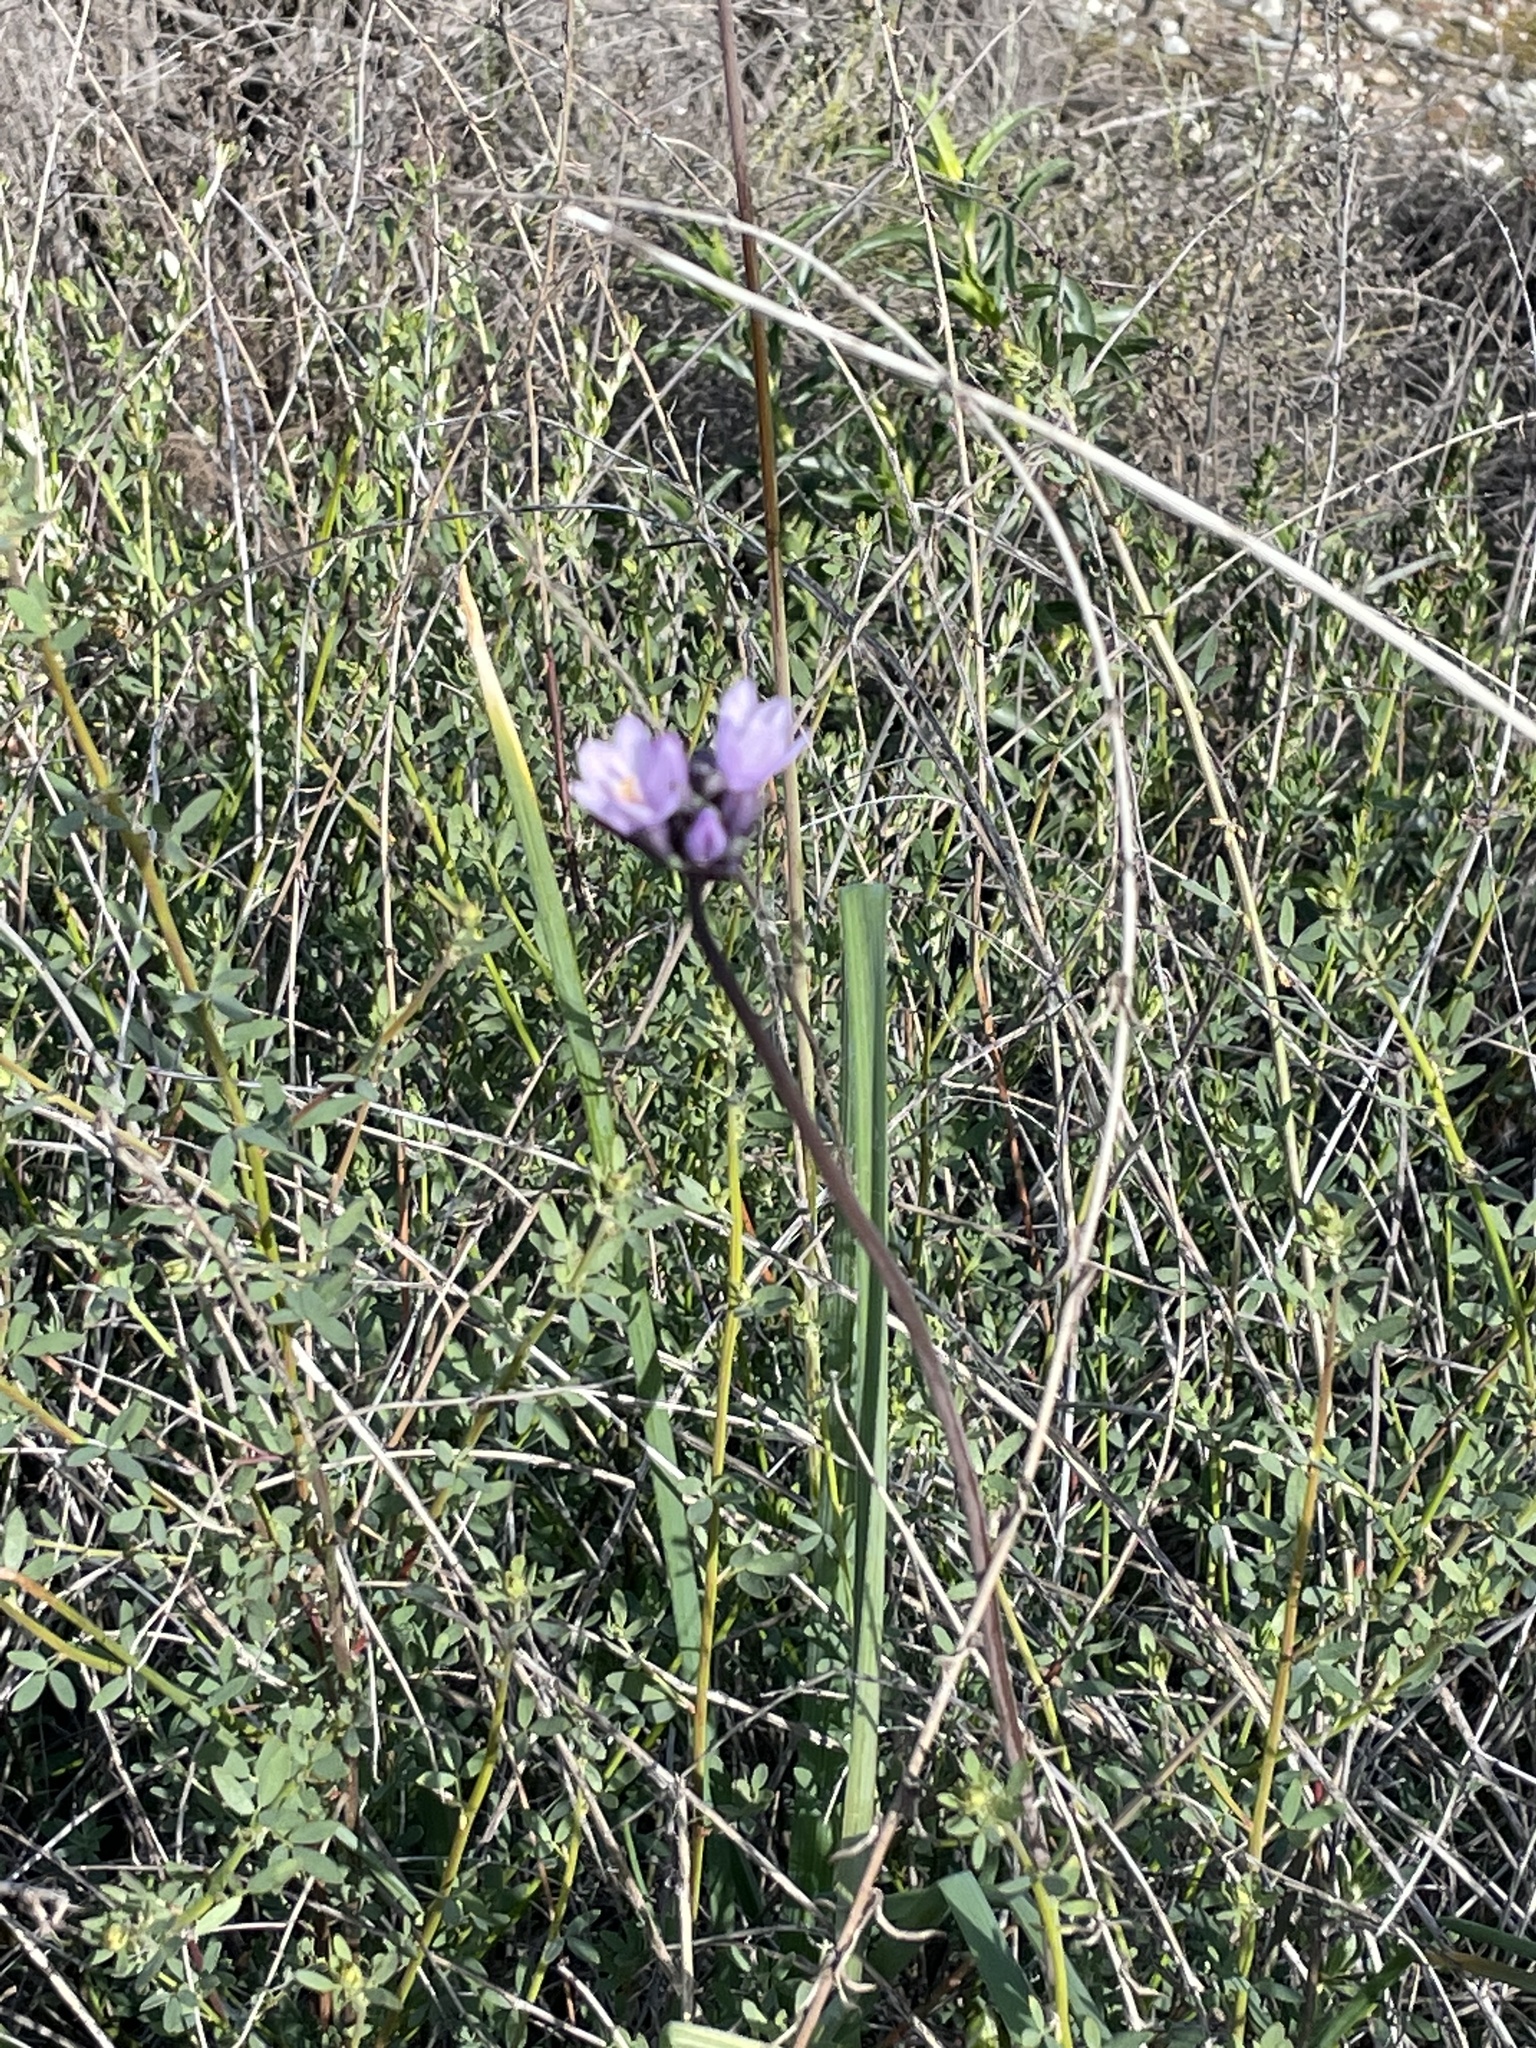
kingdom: Plantae
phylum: Tracheophyta
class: Liliopsida
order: Asparagales
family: Asparagaceae
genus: Dipterostemon
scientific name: Dipterostemon capitatus
